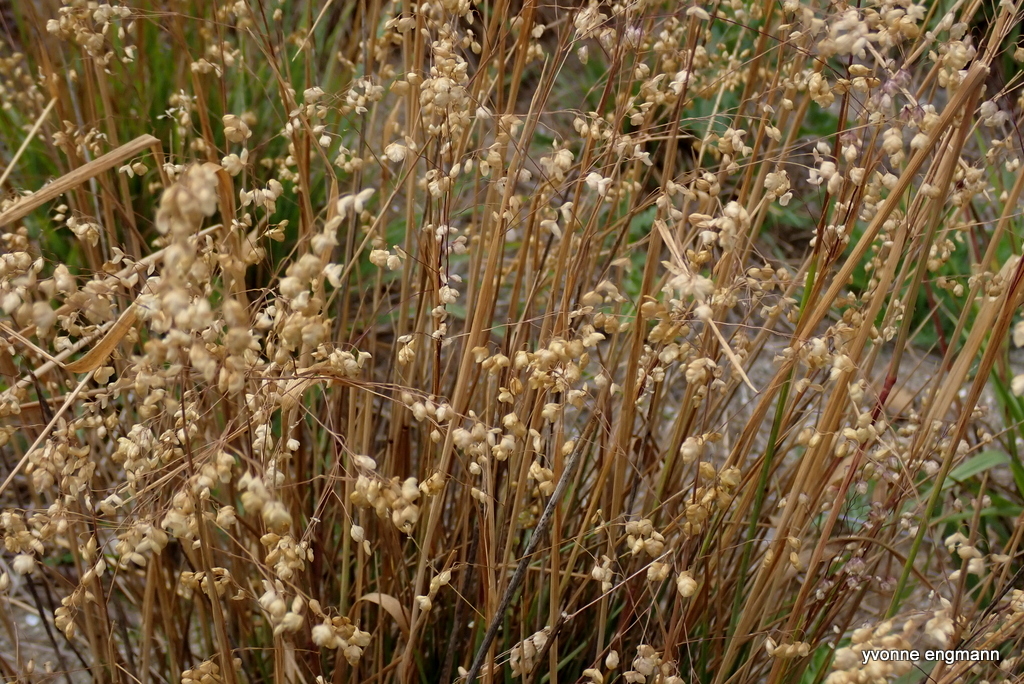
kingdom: Plantae
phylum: Tracheophyta
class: Liliopsida
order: Poales
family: Poaceae
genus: Briza
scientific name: Briza media
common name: Quaking grass
